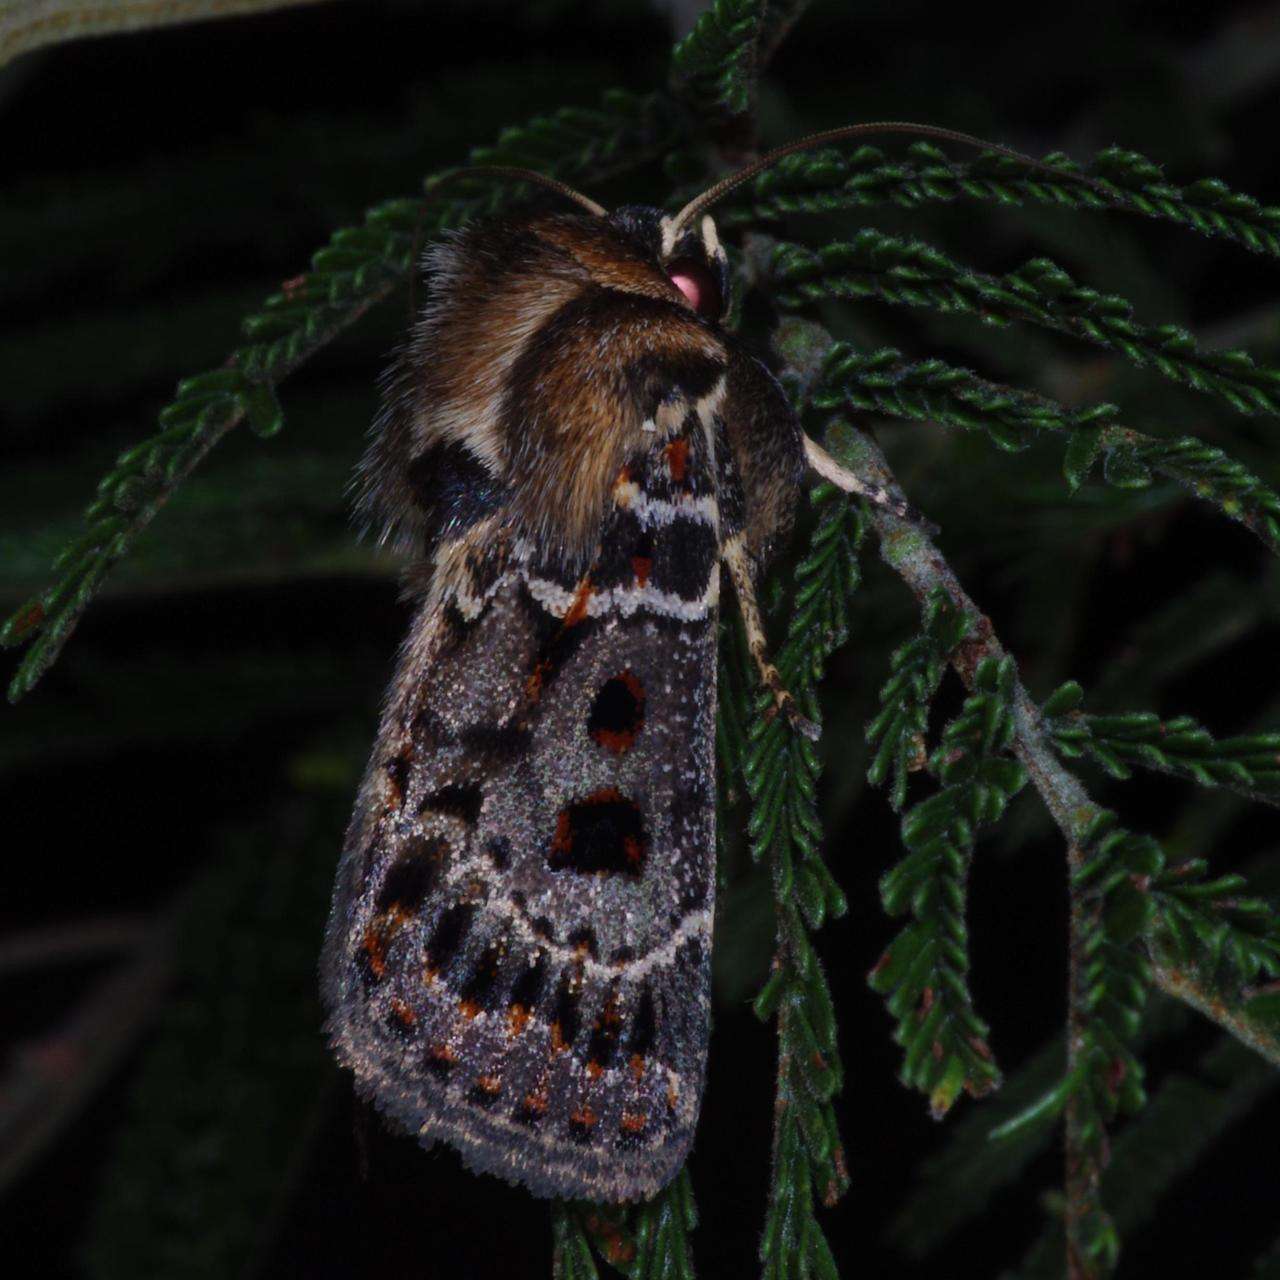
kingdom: Animalia
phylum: Arthropoda
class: Insecta
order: Lepidoptera
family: Noctuidae
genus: Proteuxoa
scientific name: Proteuxoa sanguinipuncta
